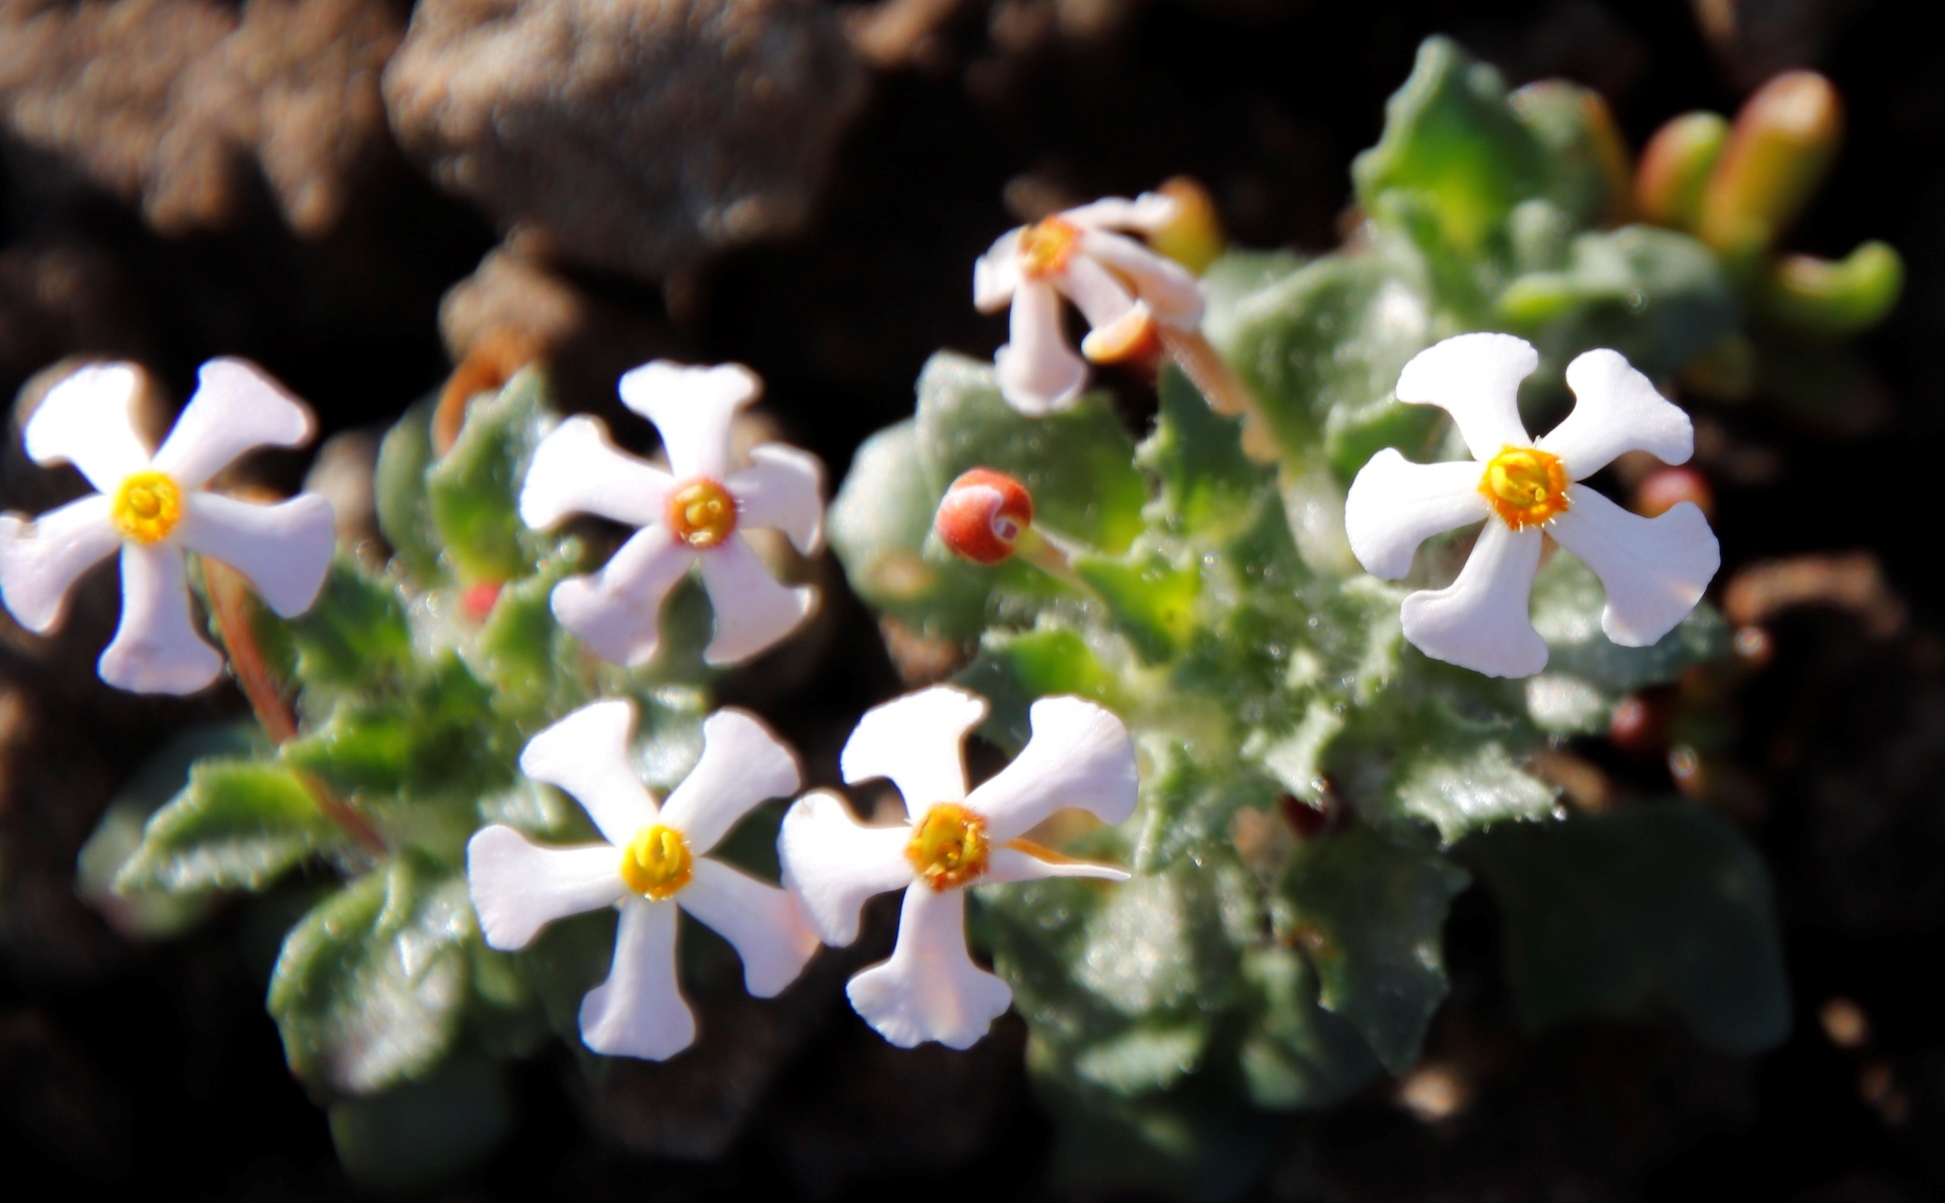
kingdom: Plantae
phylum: Tracheophyta
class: Magnoliopsida
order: Lamiales
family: Scrophulariaceae
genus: Zaluzianskya
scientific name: Zaluzianskya crocea
